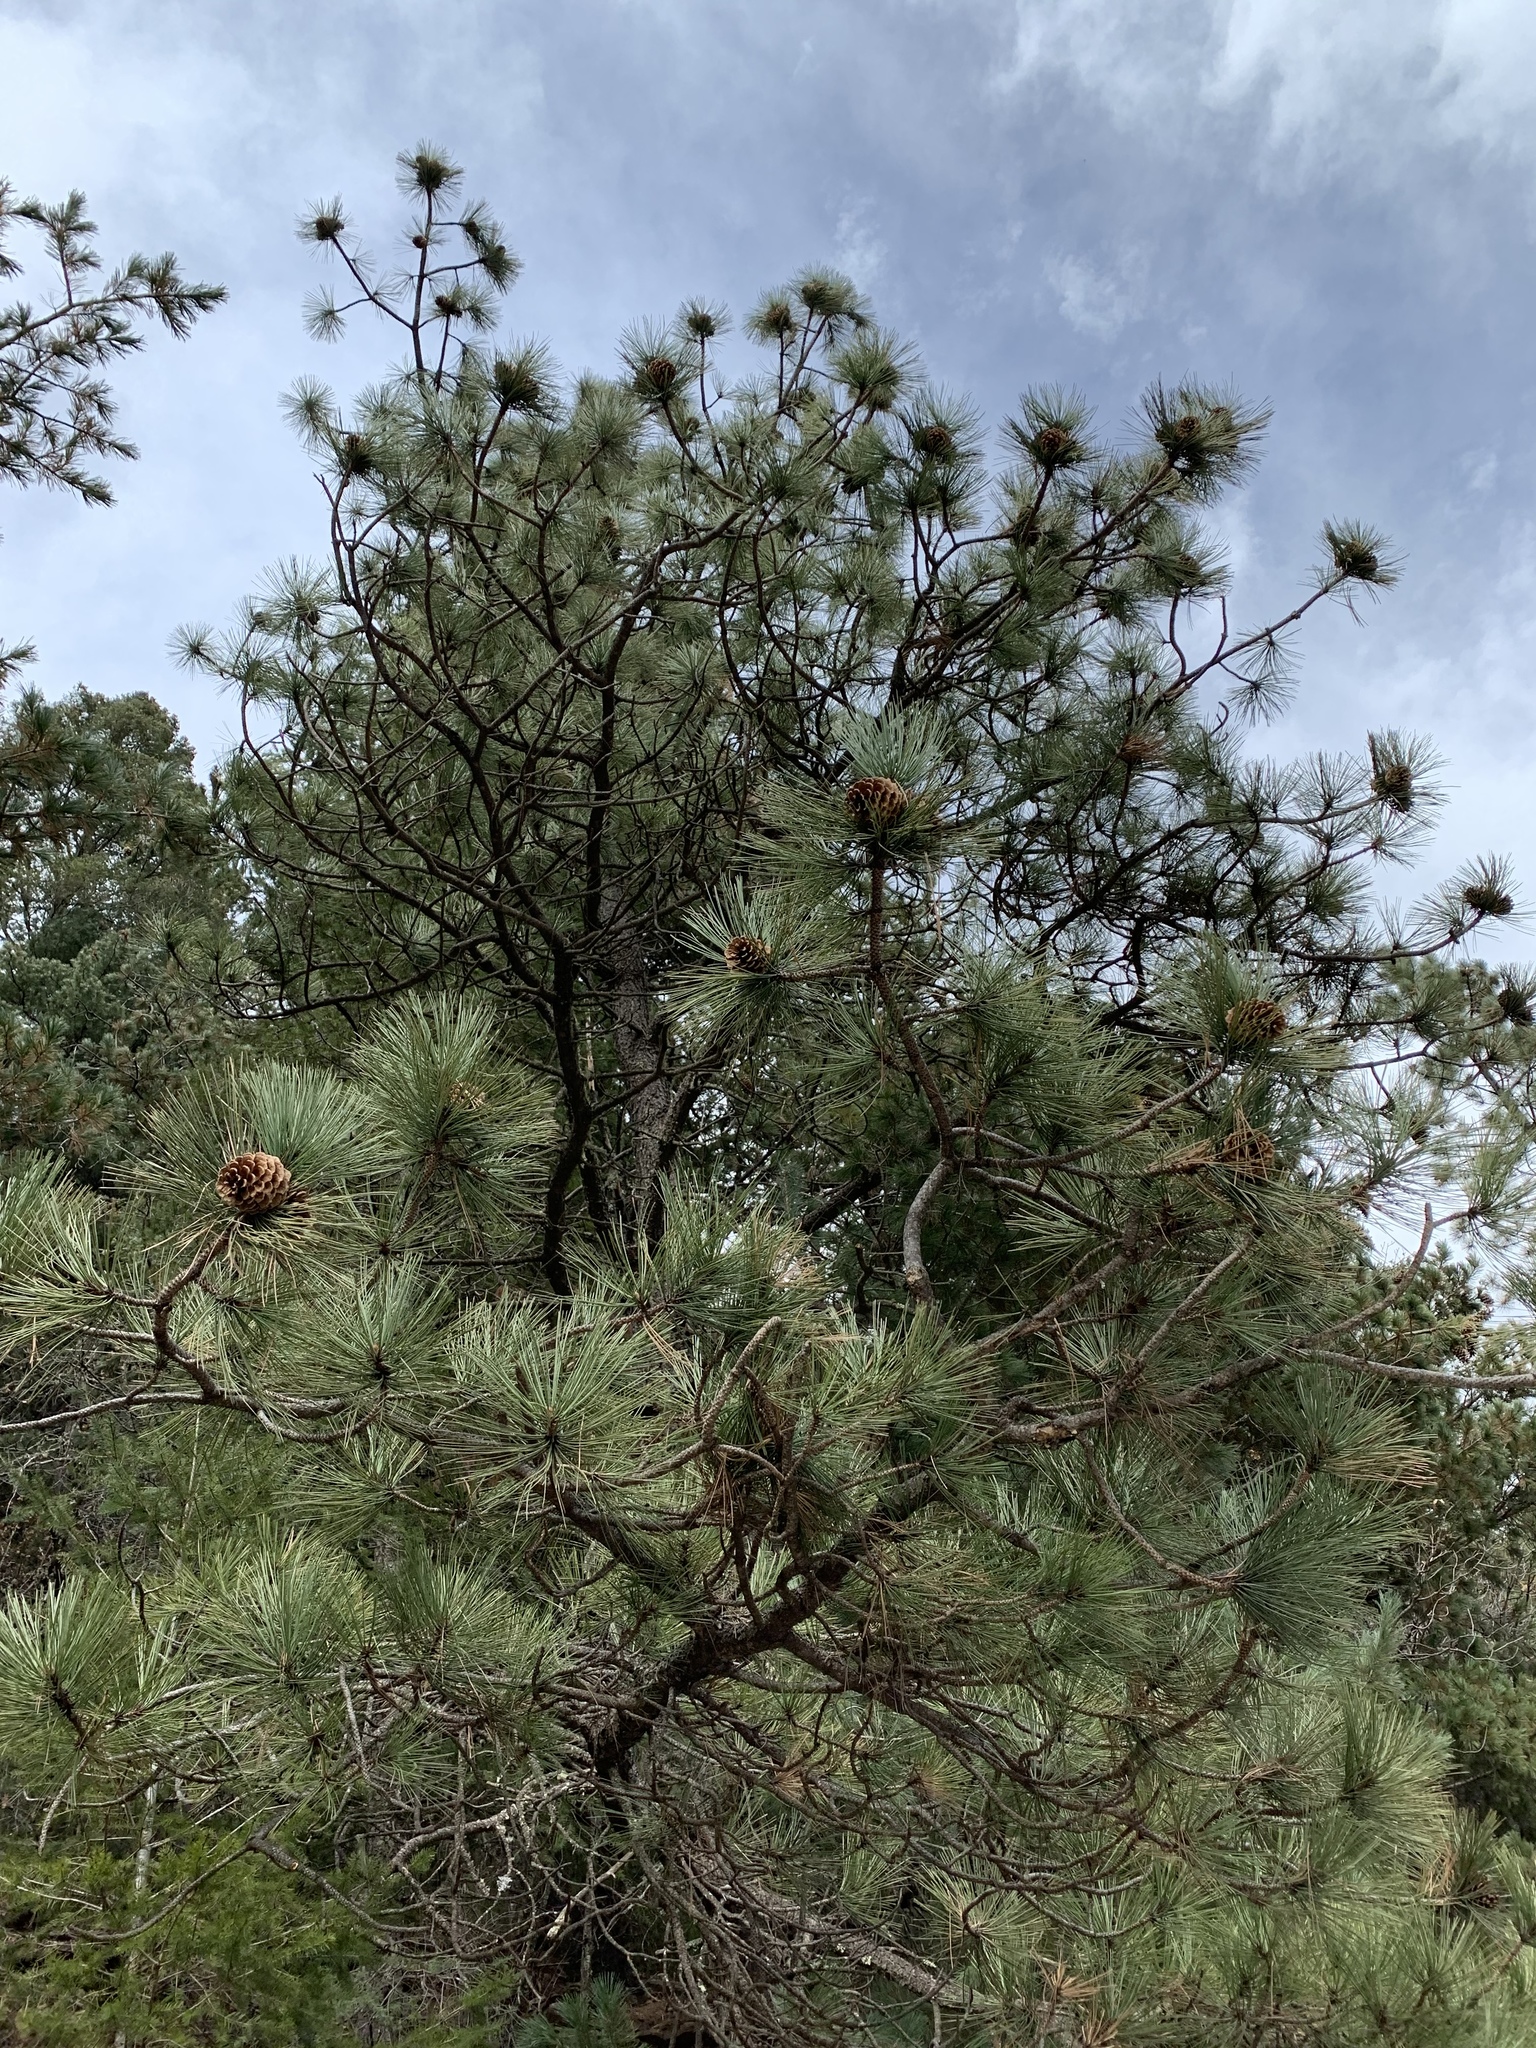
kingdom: Plantae
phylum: Tracheophyta
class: Pinopsida
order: Pinales
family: Pinaceae
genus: Pinus
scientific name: Pinus ponderosa
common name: Western yellow-pine
